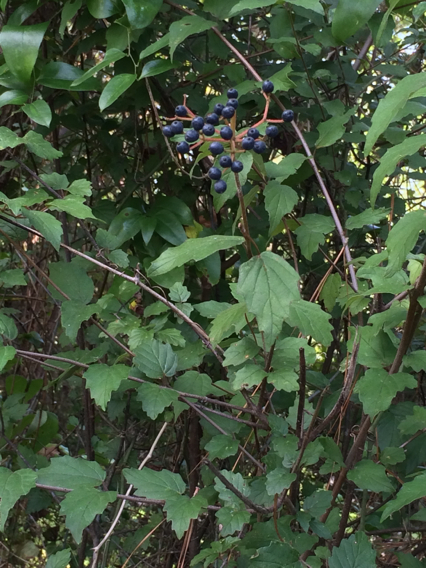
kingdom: Plantae
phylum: Tracheophyta
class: Magnoliopsida
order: Dipsacales
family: Viburnaceae
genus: Viburnum
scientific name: Viburnum scabrellum
